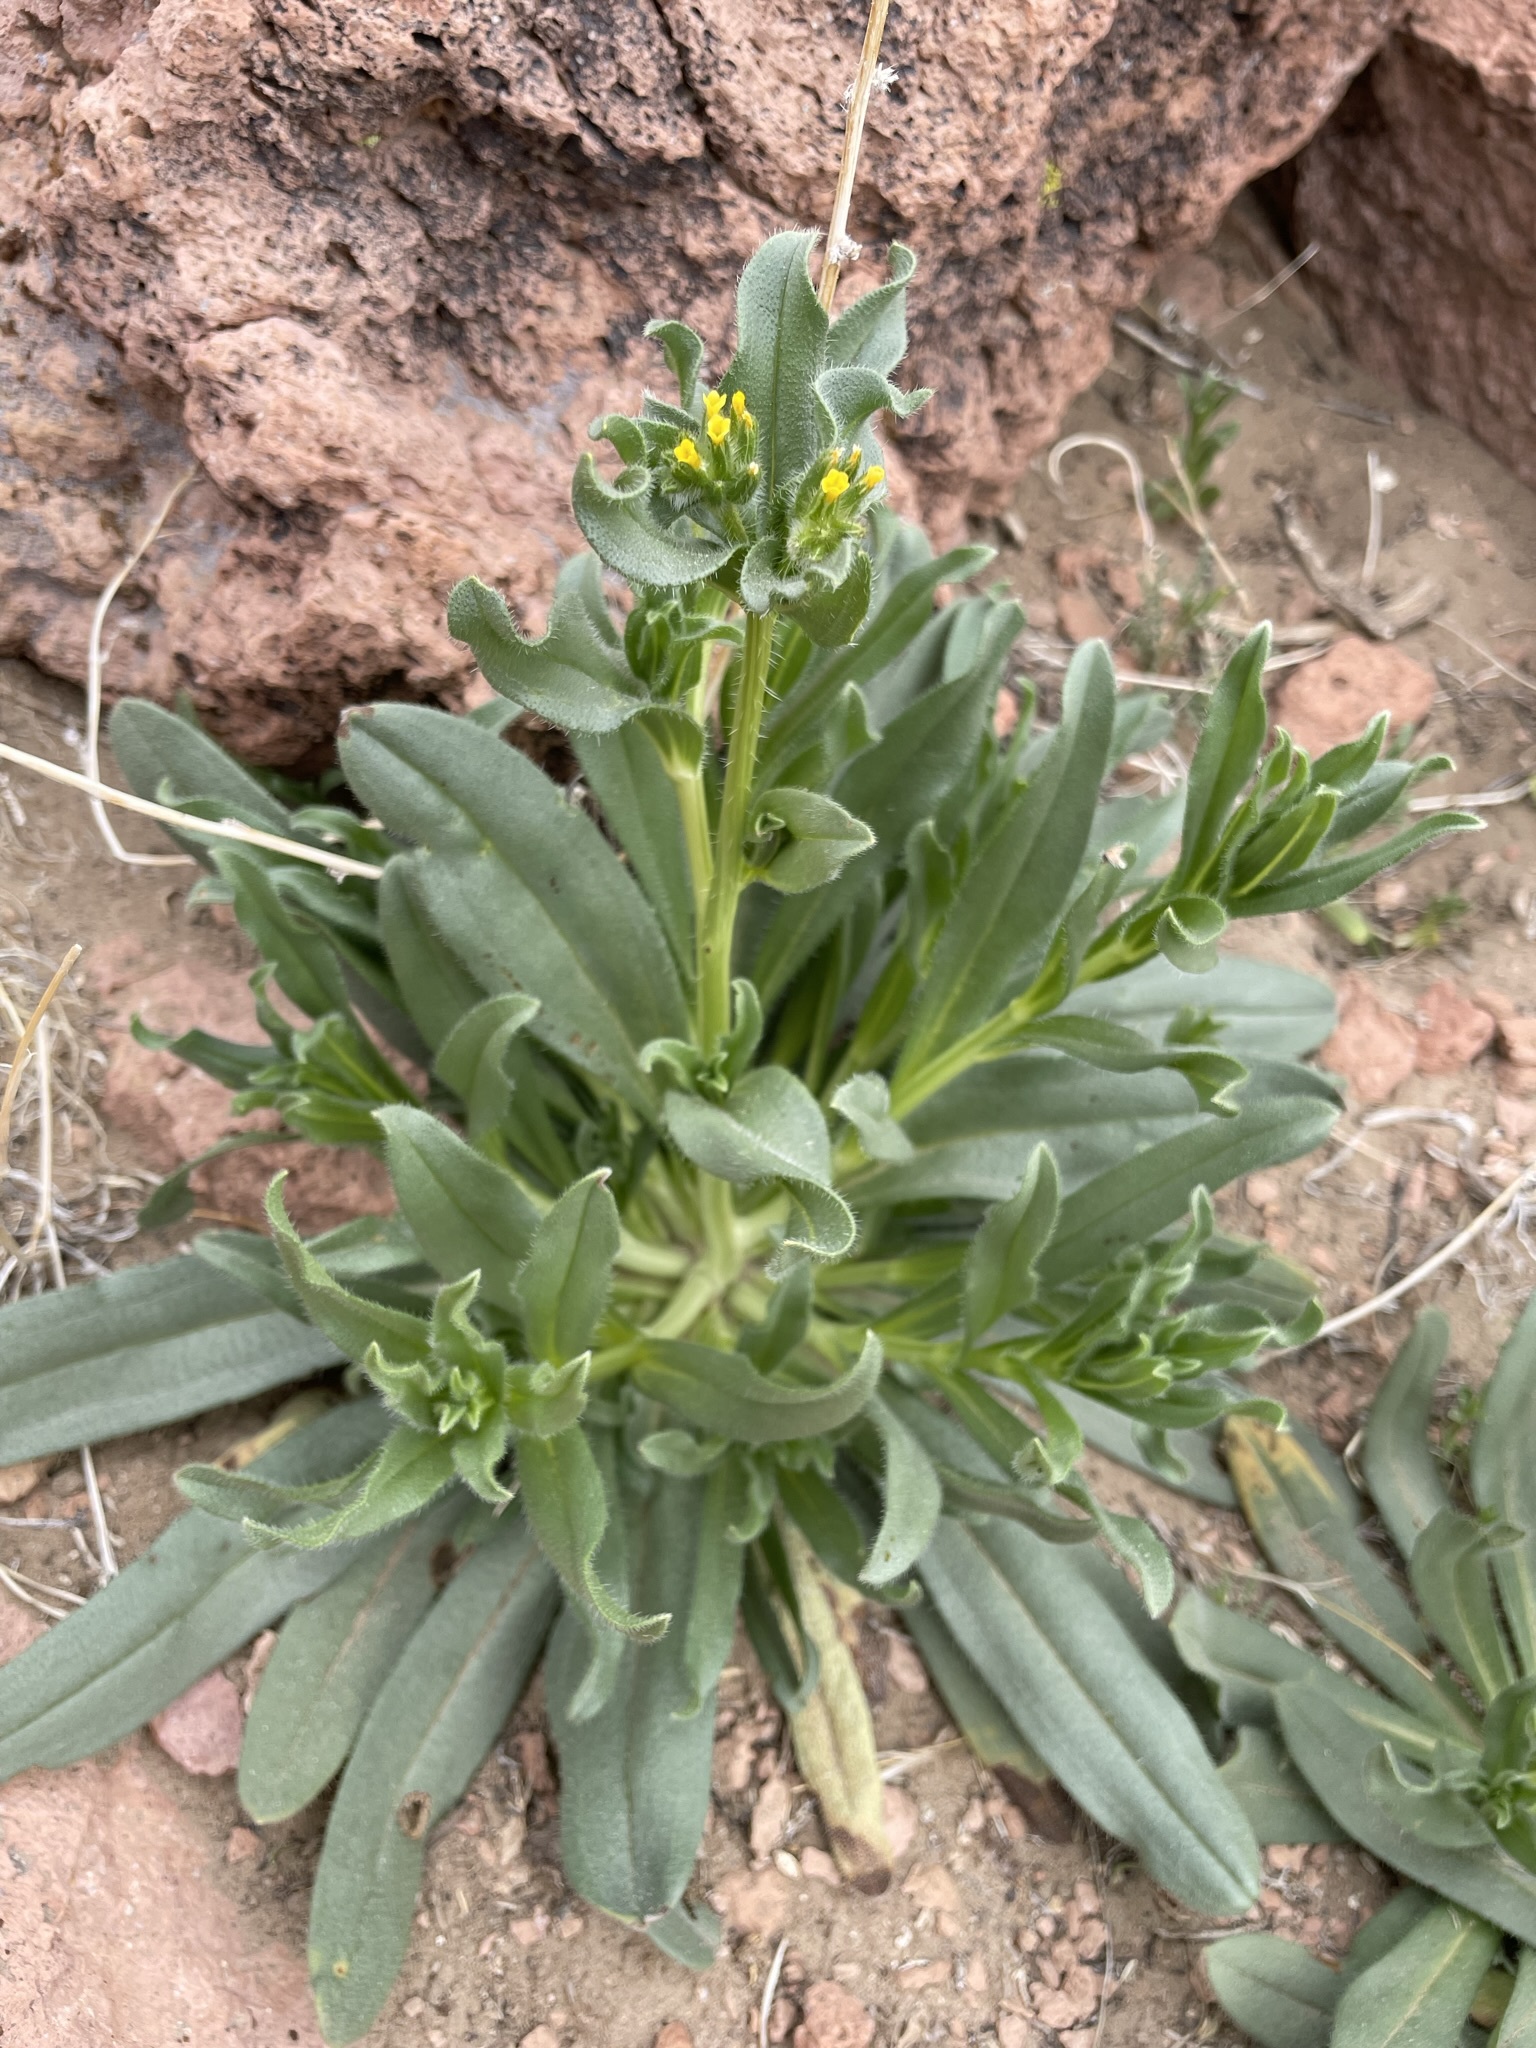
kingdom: Plantae
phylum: Tracheophyta
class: Magnoliopsida
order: Boraginales
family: Boraginaceae
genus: Amsinckia
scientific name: Amsinckia tessellata
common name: Tessellate fiddleneck
